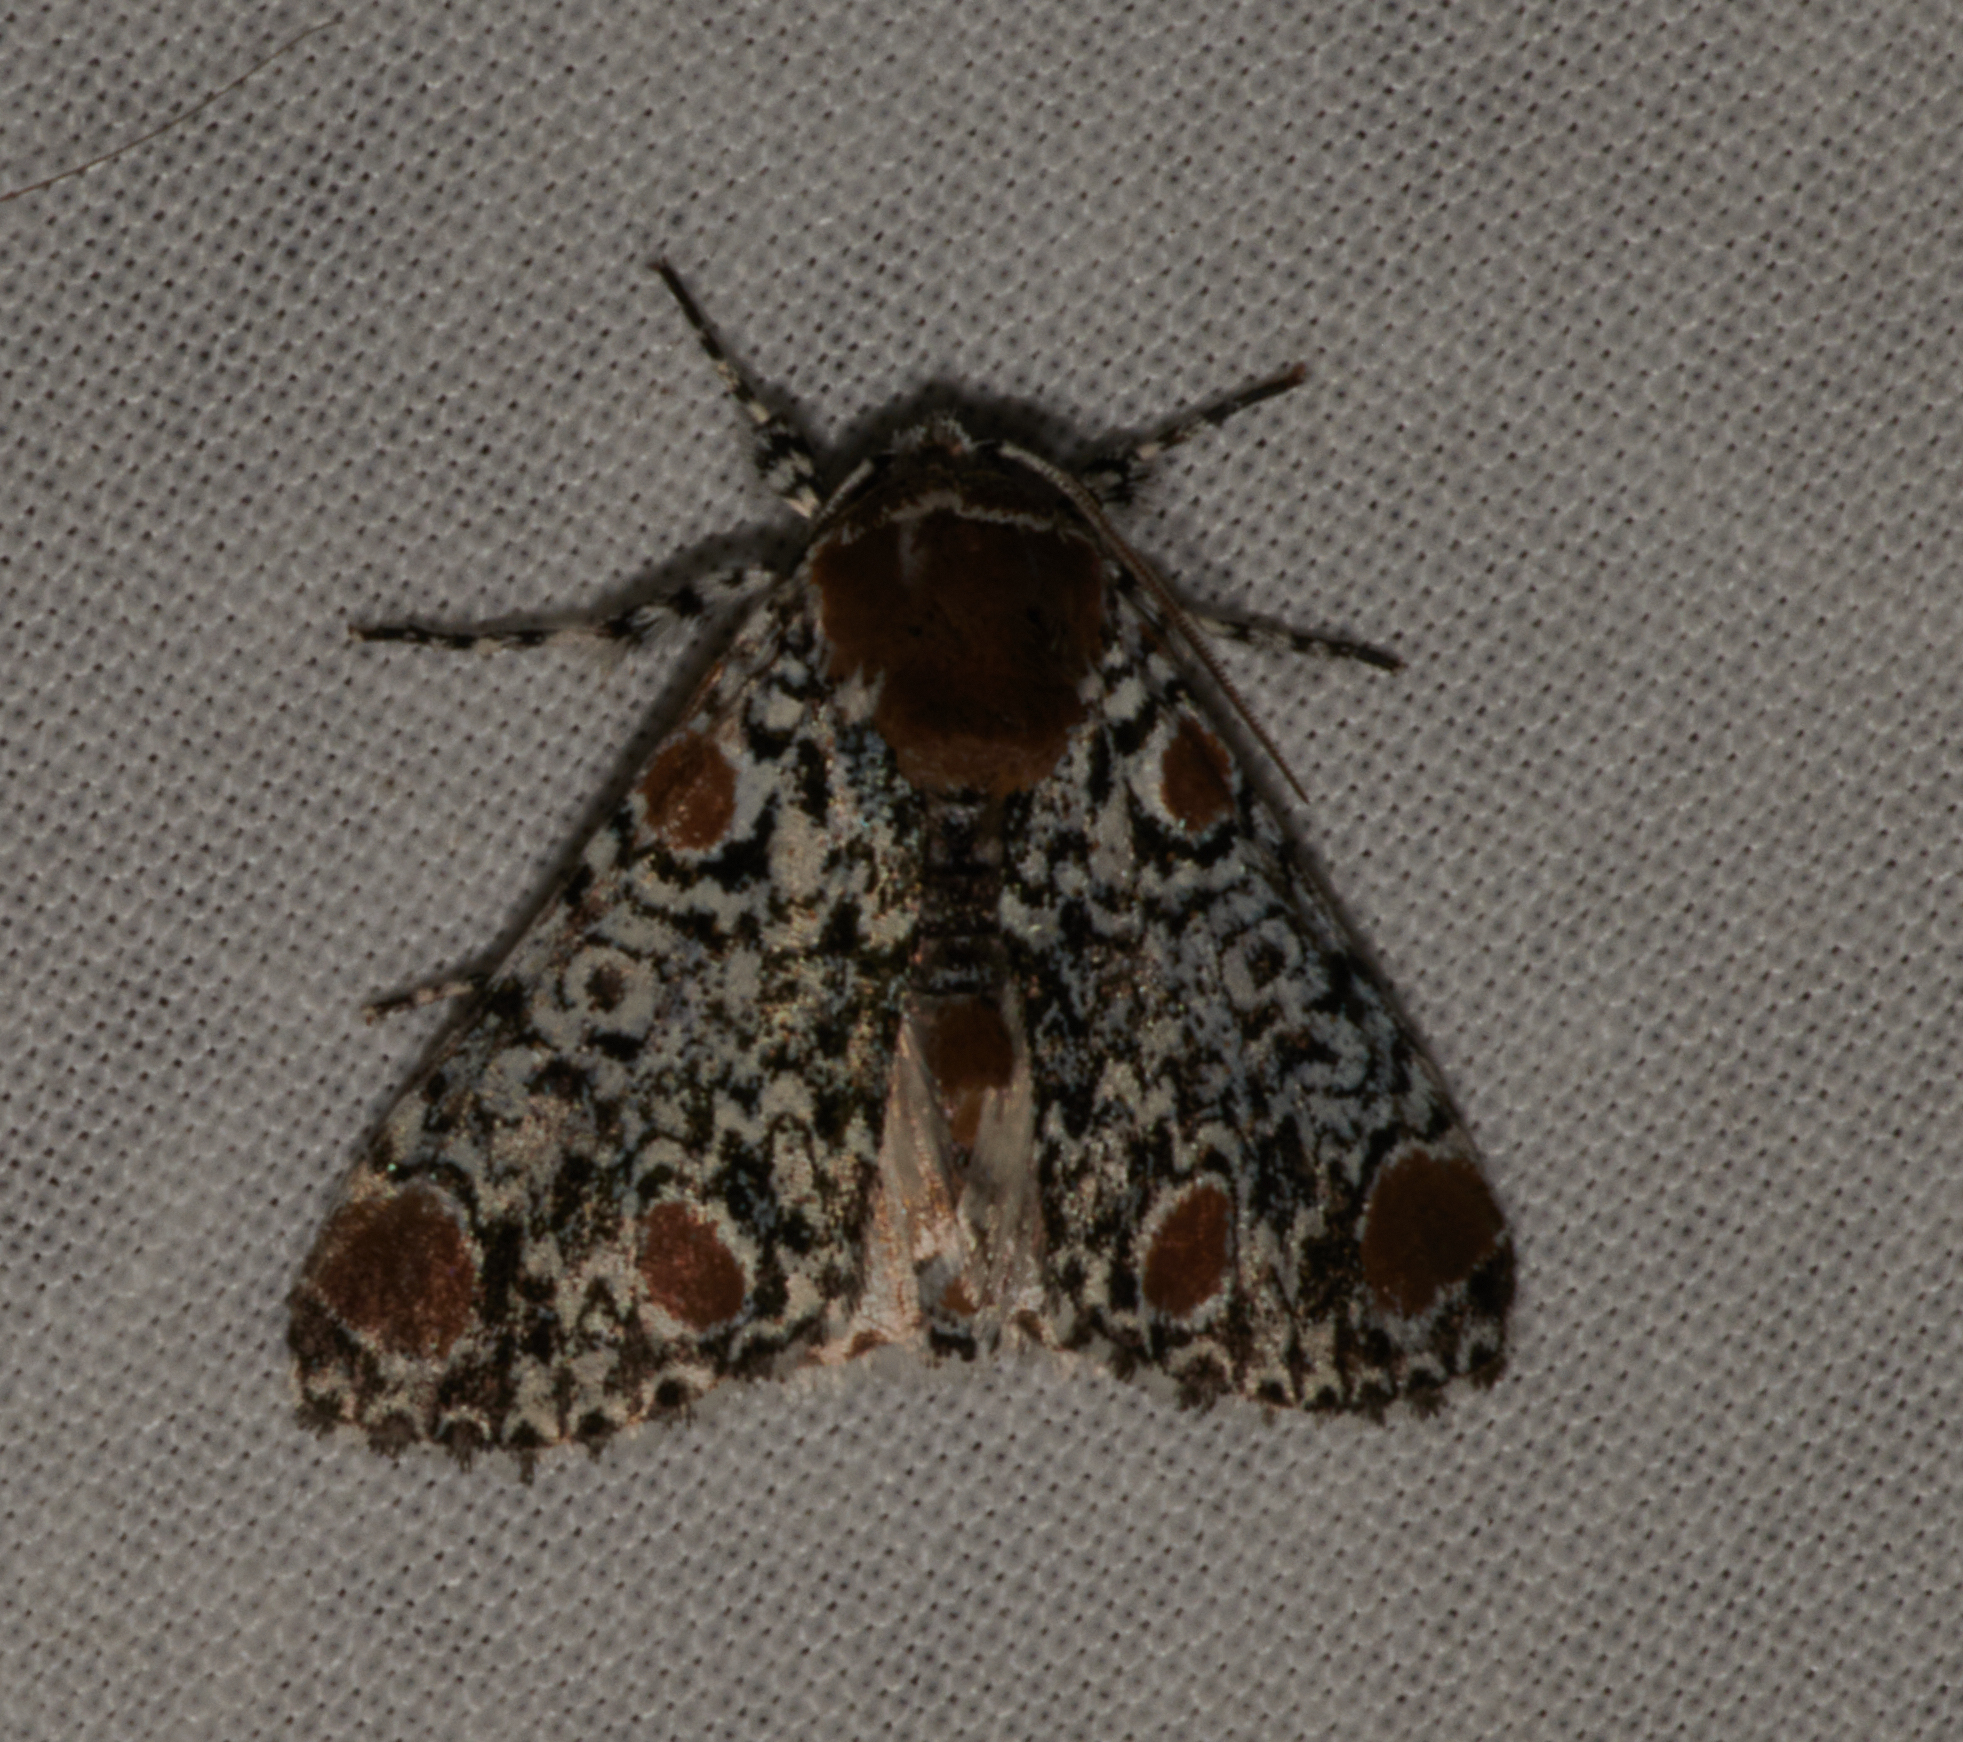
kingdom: Animalia
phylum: Arthropoda
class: Insecta
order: Lepidoptera
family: Noctuidae
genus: Harrisimemna
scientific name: Harrisimemna trisignata
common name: Harris threespot
